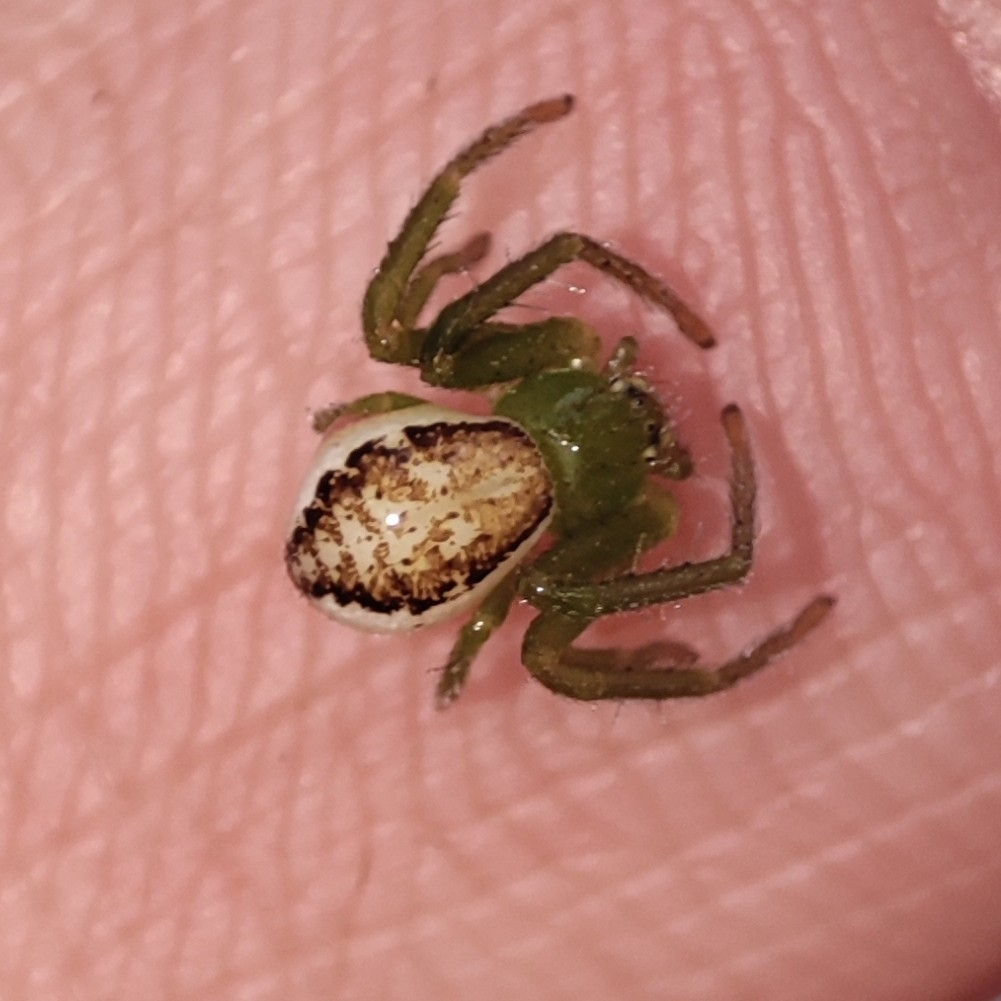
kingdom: Animalia
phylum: Arthropoda
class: Arachnida
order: Araneae
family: Thomisidae
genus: Diaea
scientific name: Diaea dorsata
